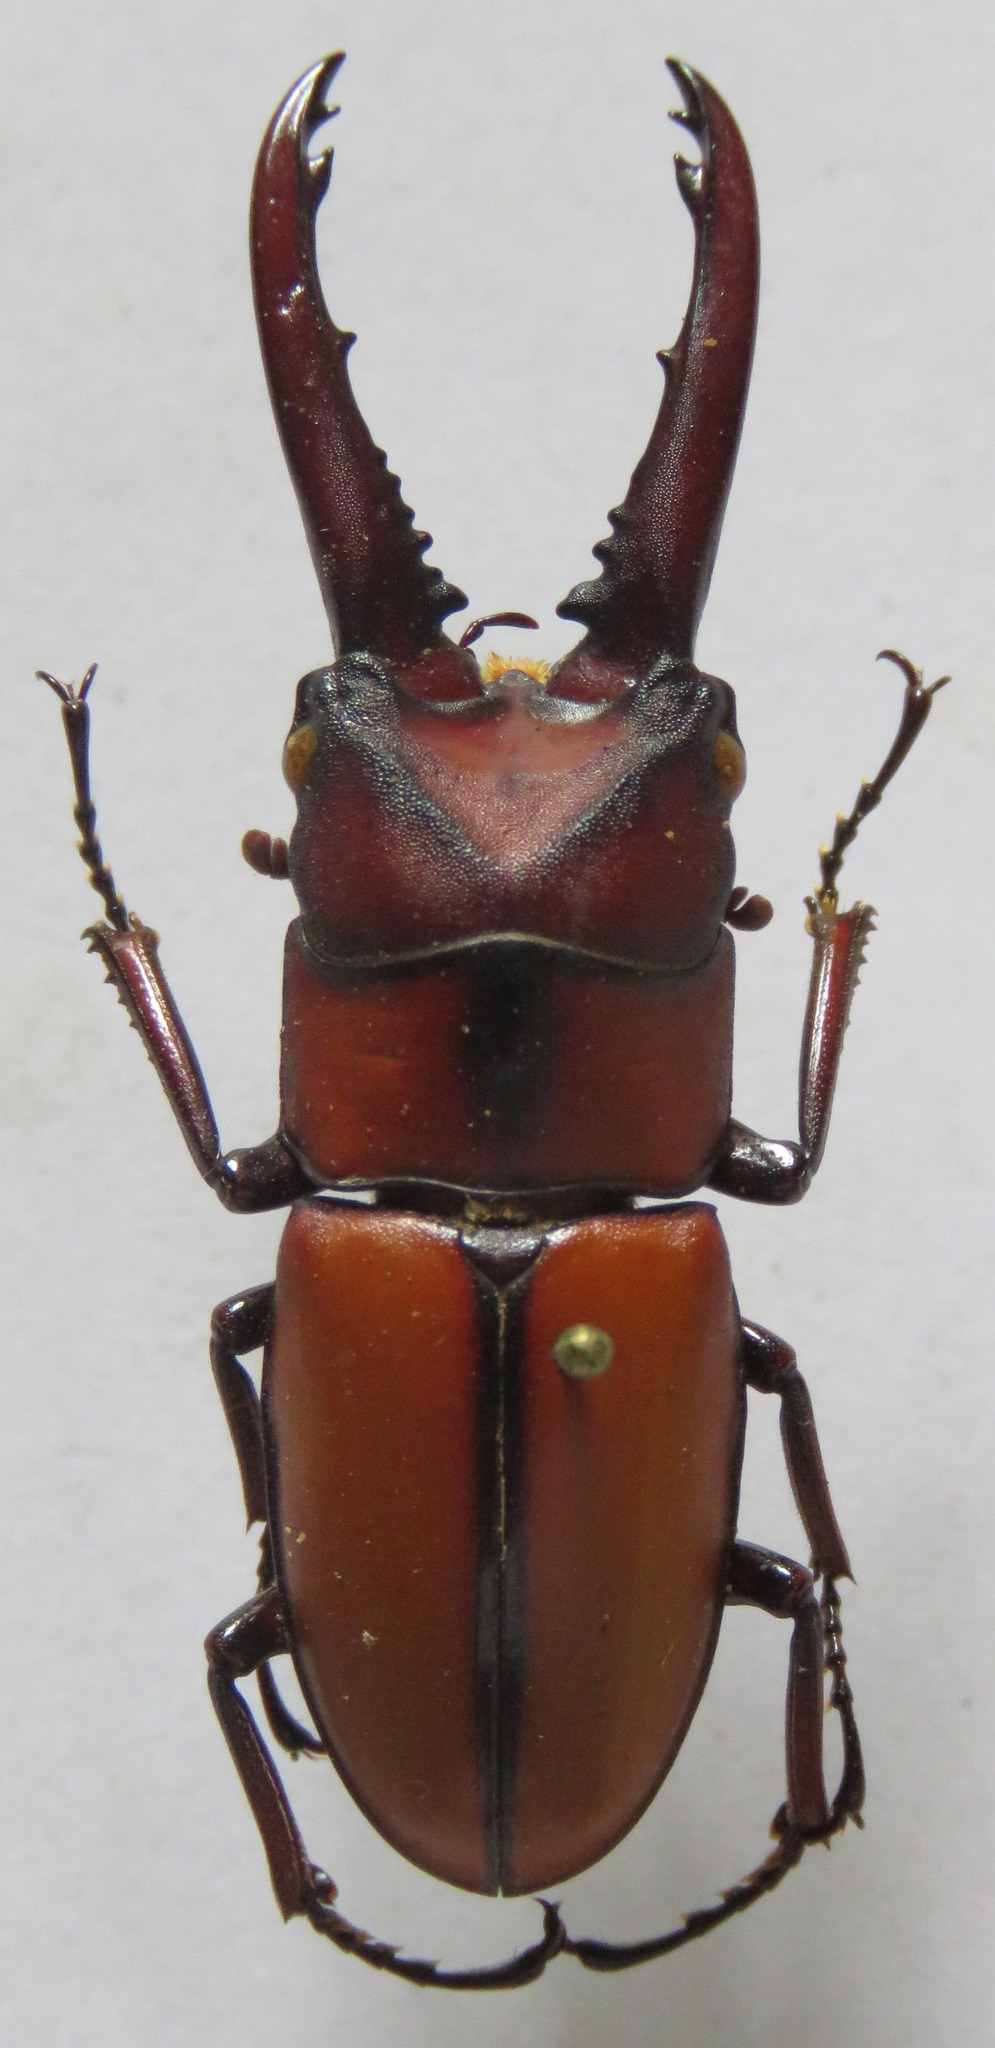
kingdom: Animalia
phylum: Arthropoda
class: Insecta
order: Coleoptera
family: Lucanidae
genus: Prosopocoilus
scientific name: Prosopocoilus mohnikei
